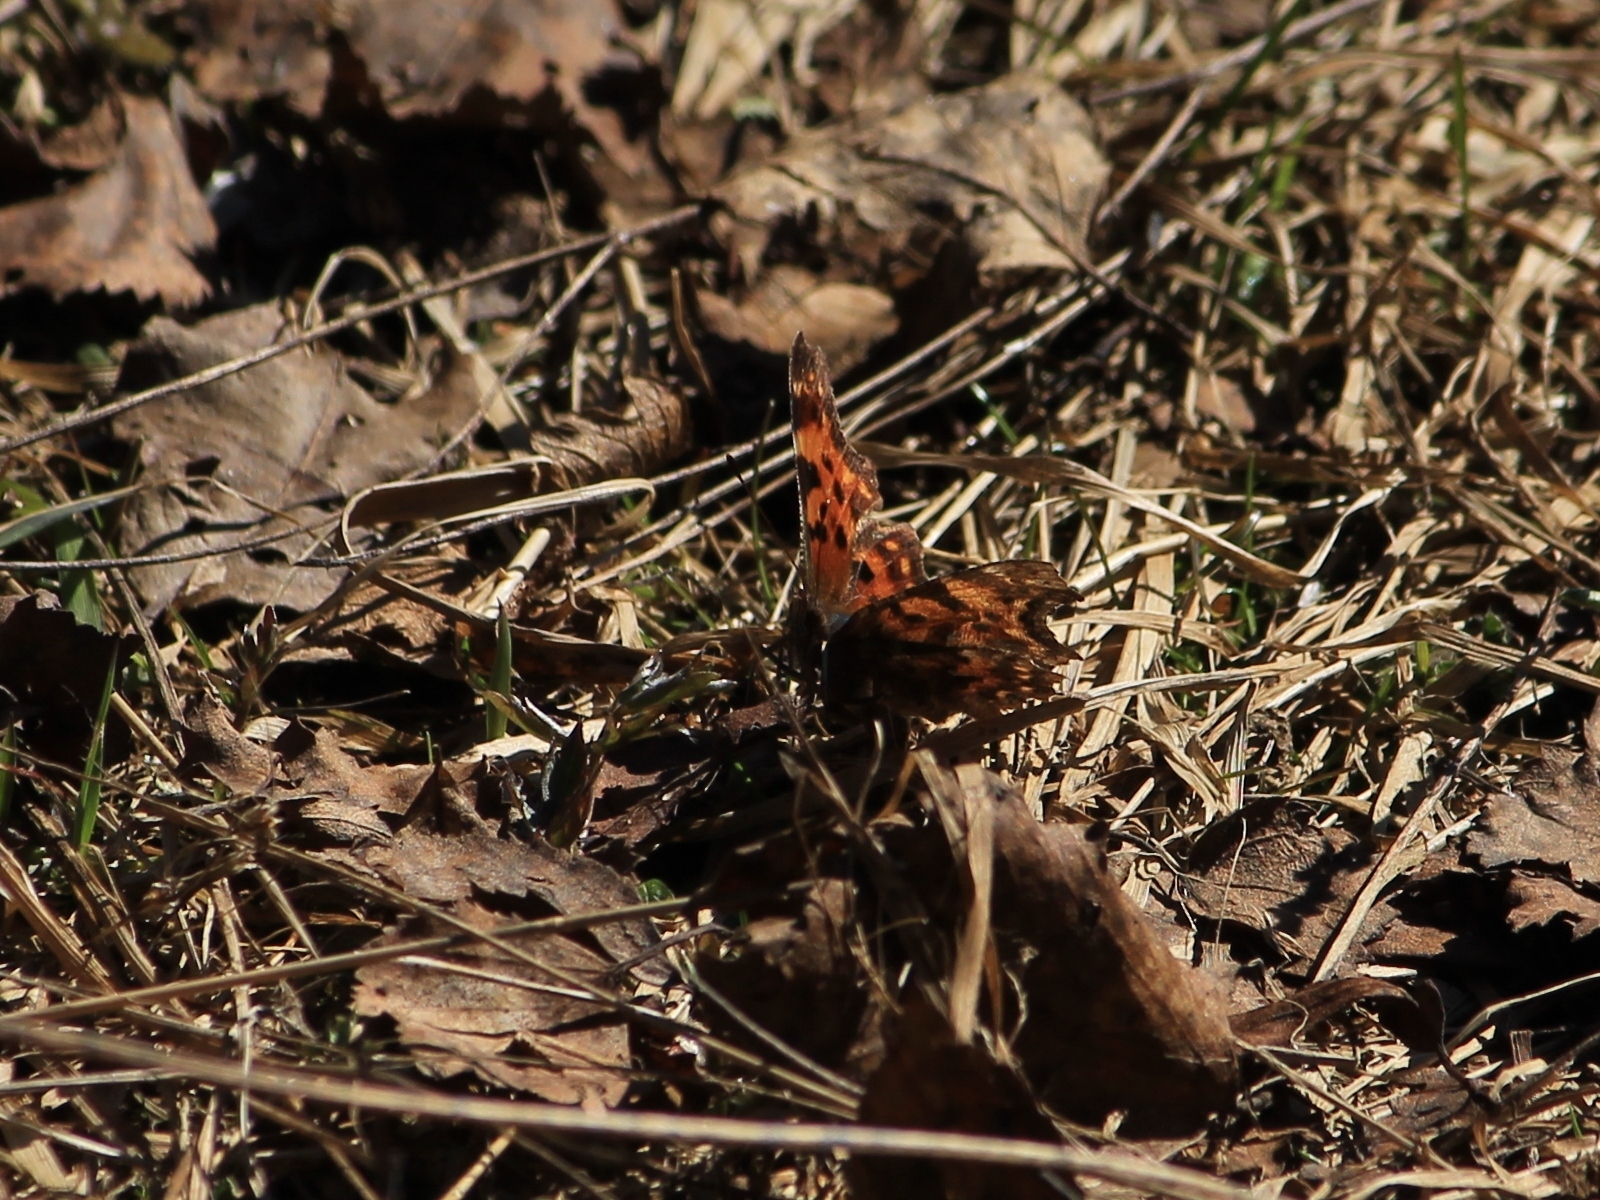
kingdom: Animalia
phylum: Arthropoda
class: Insecta
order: Lepidoptera
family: Nymphalidae
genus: Polygonia
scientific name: Polygonia c-album
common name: Comma
